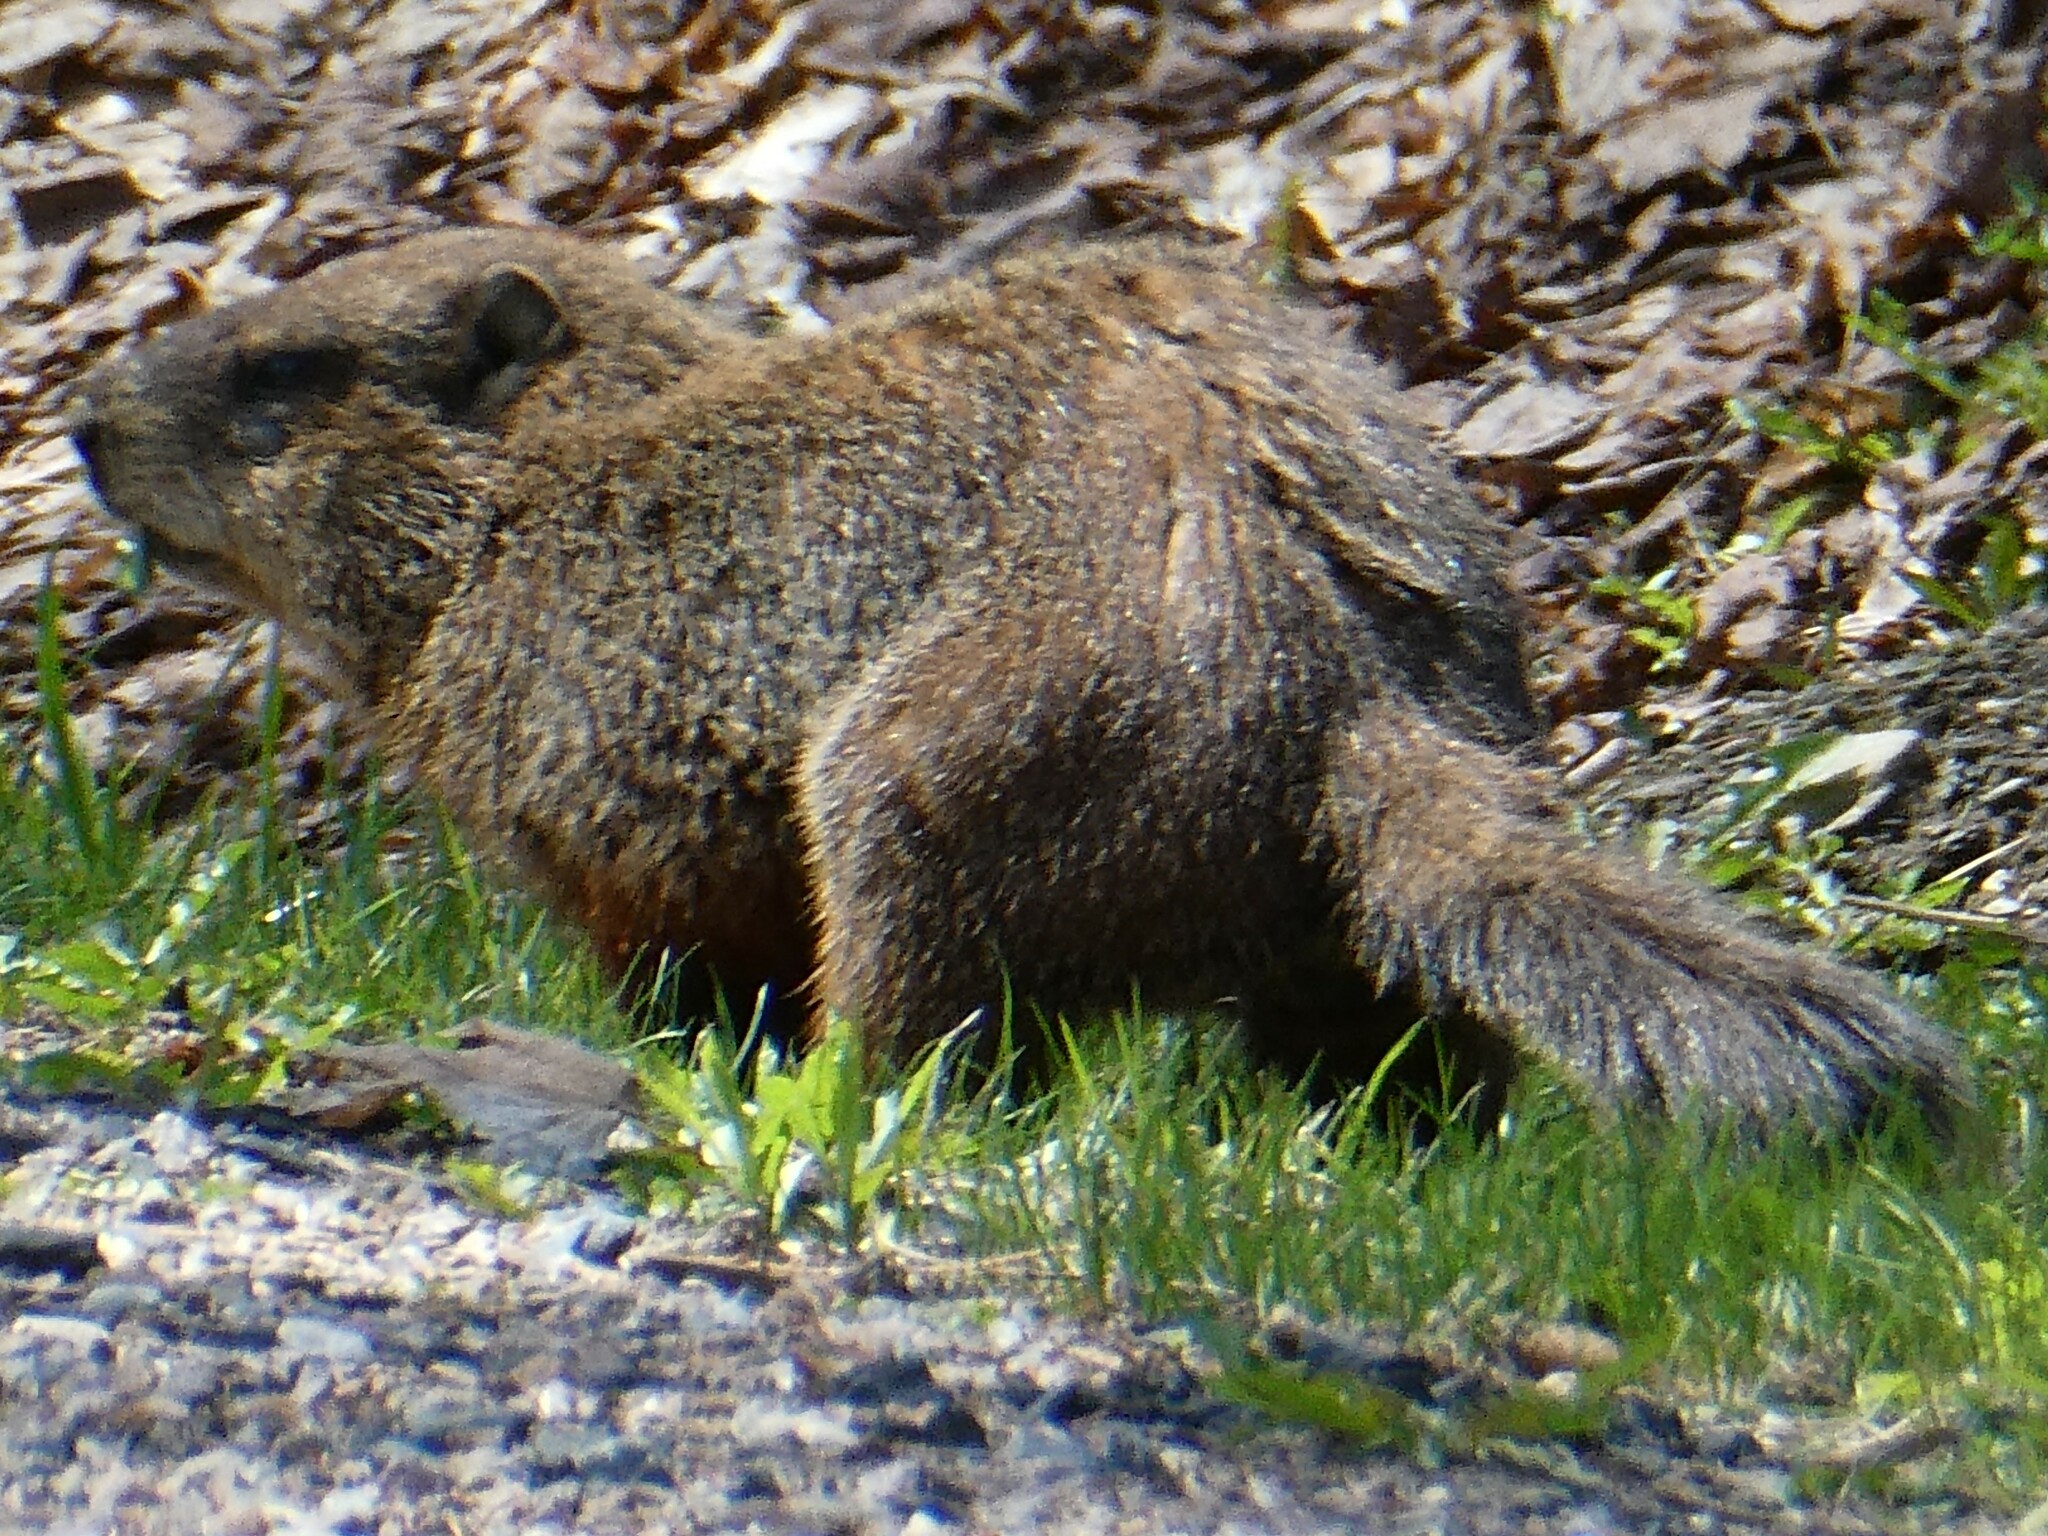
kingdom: Animalia
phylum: Chordata
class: Mammalia
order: Rodentia
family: Sciuridae
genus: Marmota
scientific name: Marmota monax
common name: Groundhog
